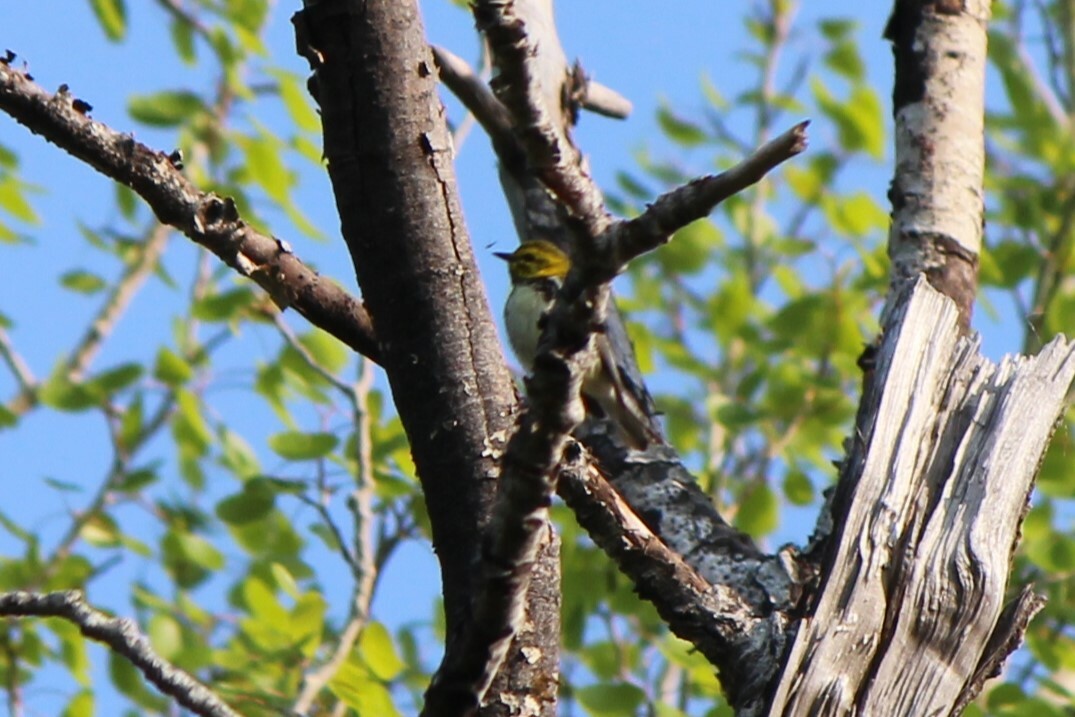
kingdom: Animalia
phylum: Chordata
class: Aves
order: Passeriformes
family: Parulidae
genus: Setophaga
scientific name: Setophaga virens
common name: Black-throated green warbler
